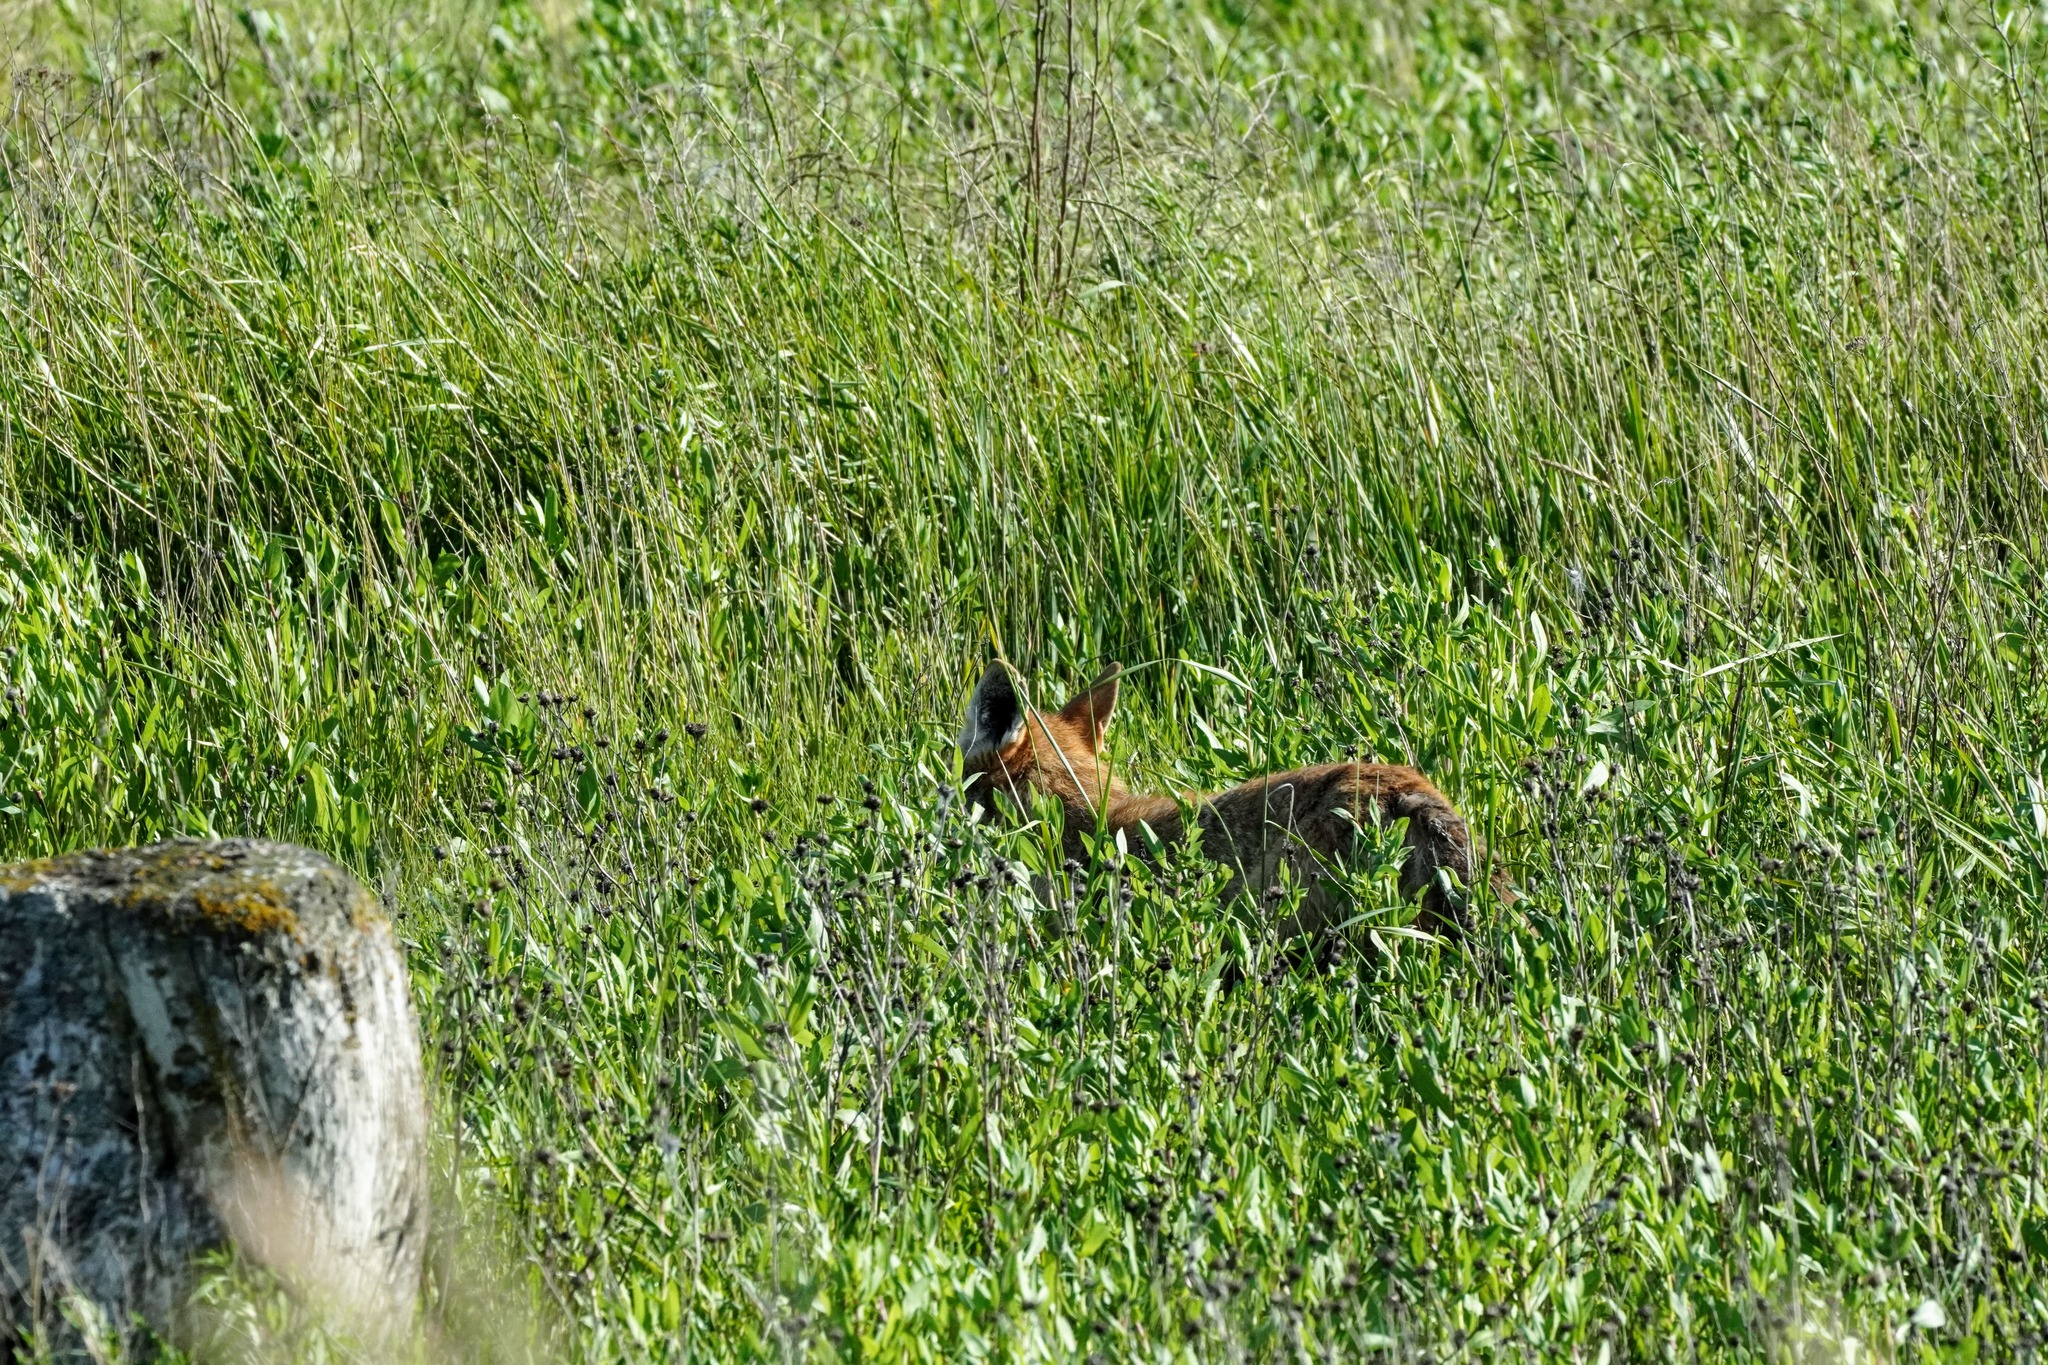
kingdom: Animalia
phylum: Chordata
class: Mammalia
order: Carnivora
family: Canidae
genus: Canis
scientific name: Canis latrans
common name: Coyote
